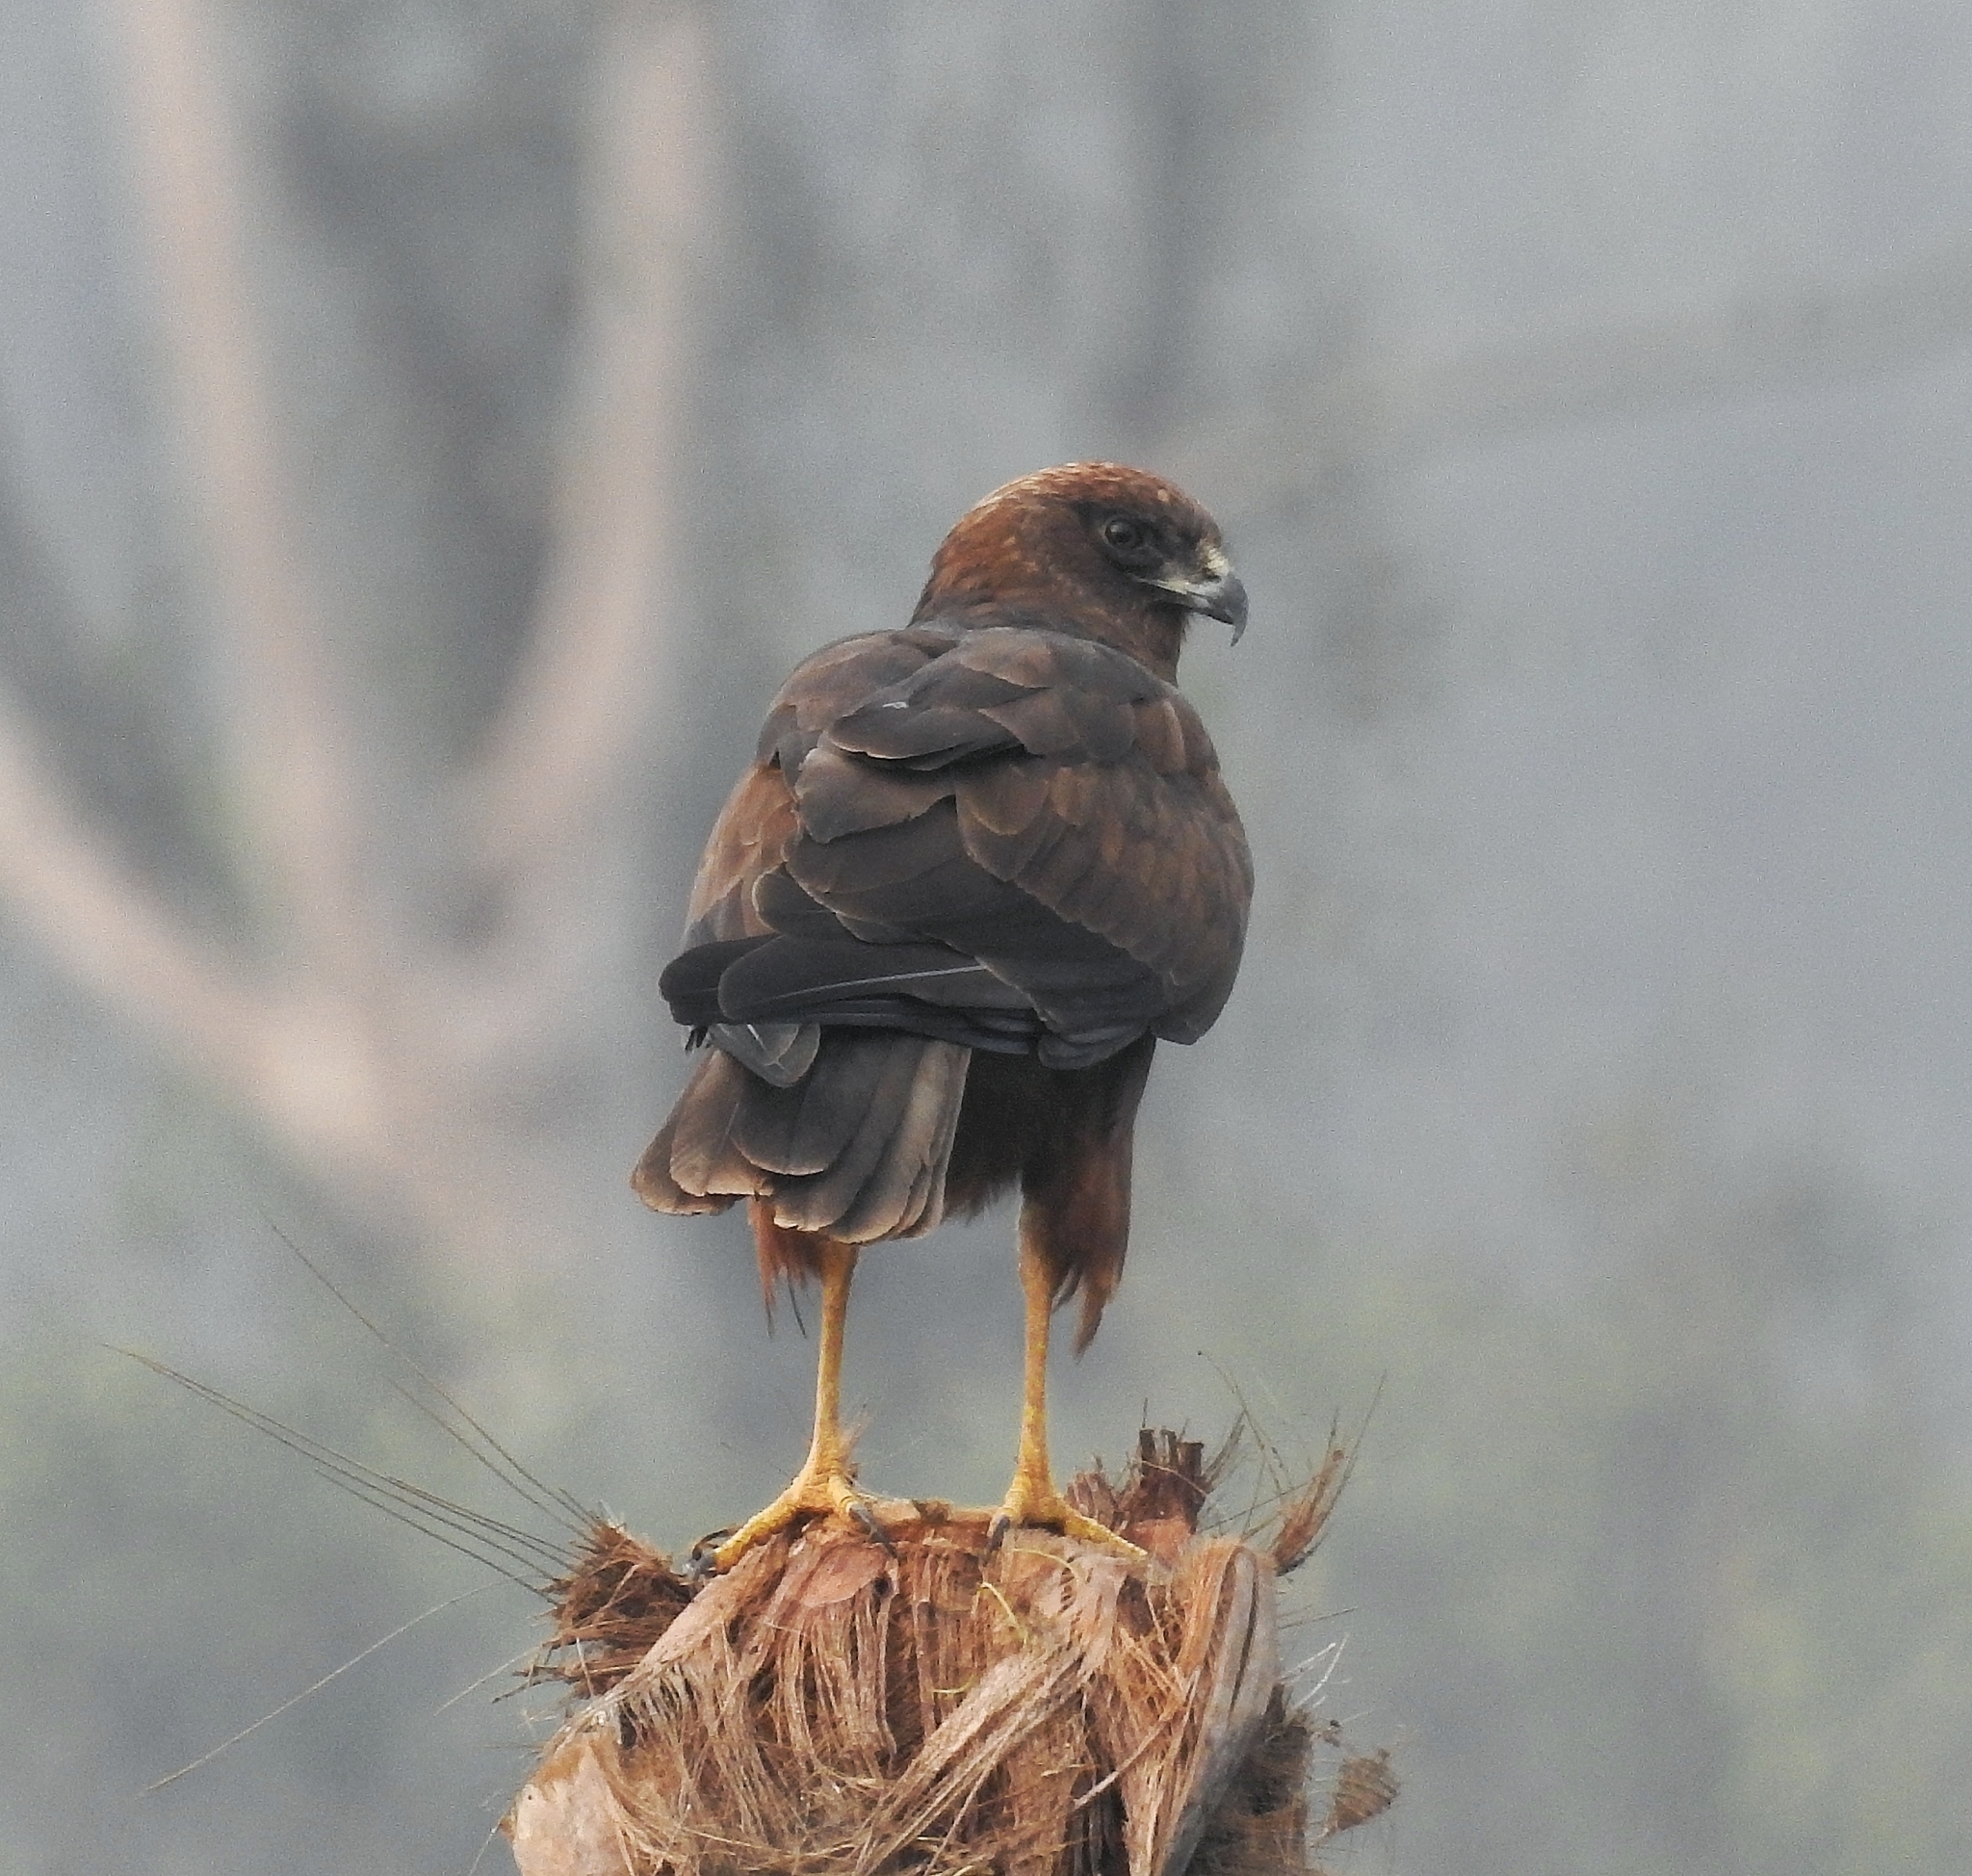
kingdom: Animalia
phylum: Chordata
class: Aves
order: Accipitriformes
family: Accipitridae
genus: Circus
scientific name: Circus aeruginosus
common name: Western marsh harrier
